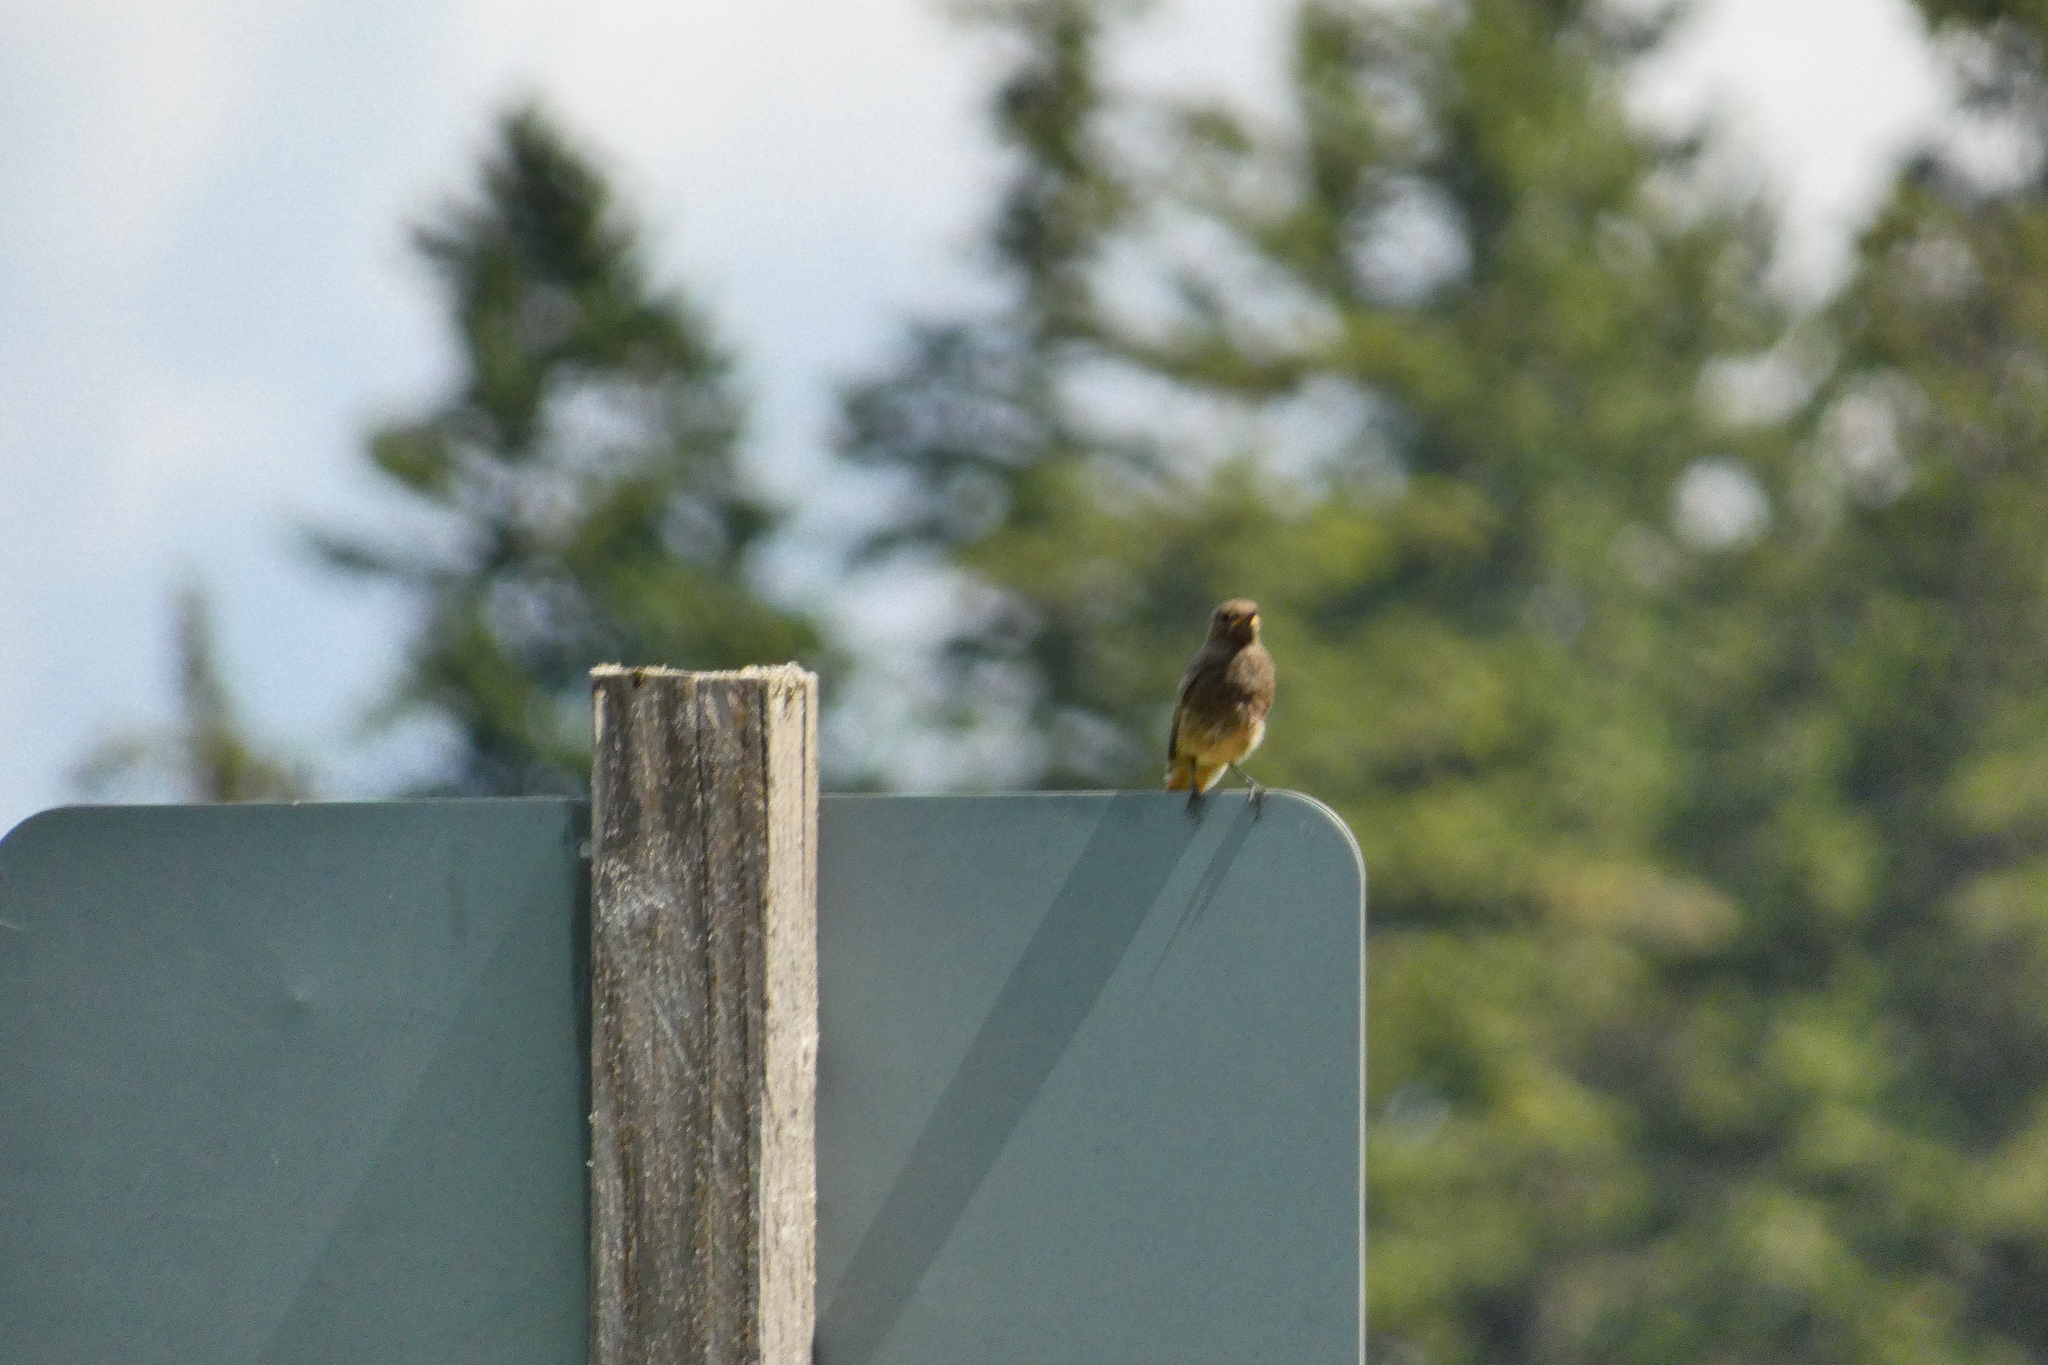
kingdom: Animalia
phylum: Chordata
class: Aves
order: Passeriformes
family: Muscicapidae
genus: Phoenicurus
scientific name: Phoenicurus ochruros
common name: Black redstart
